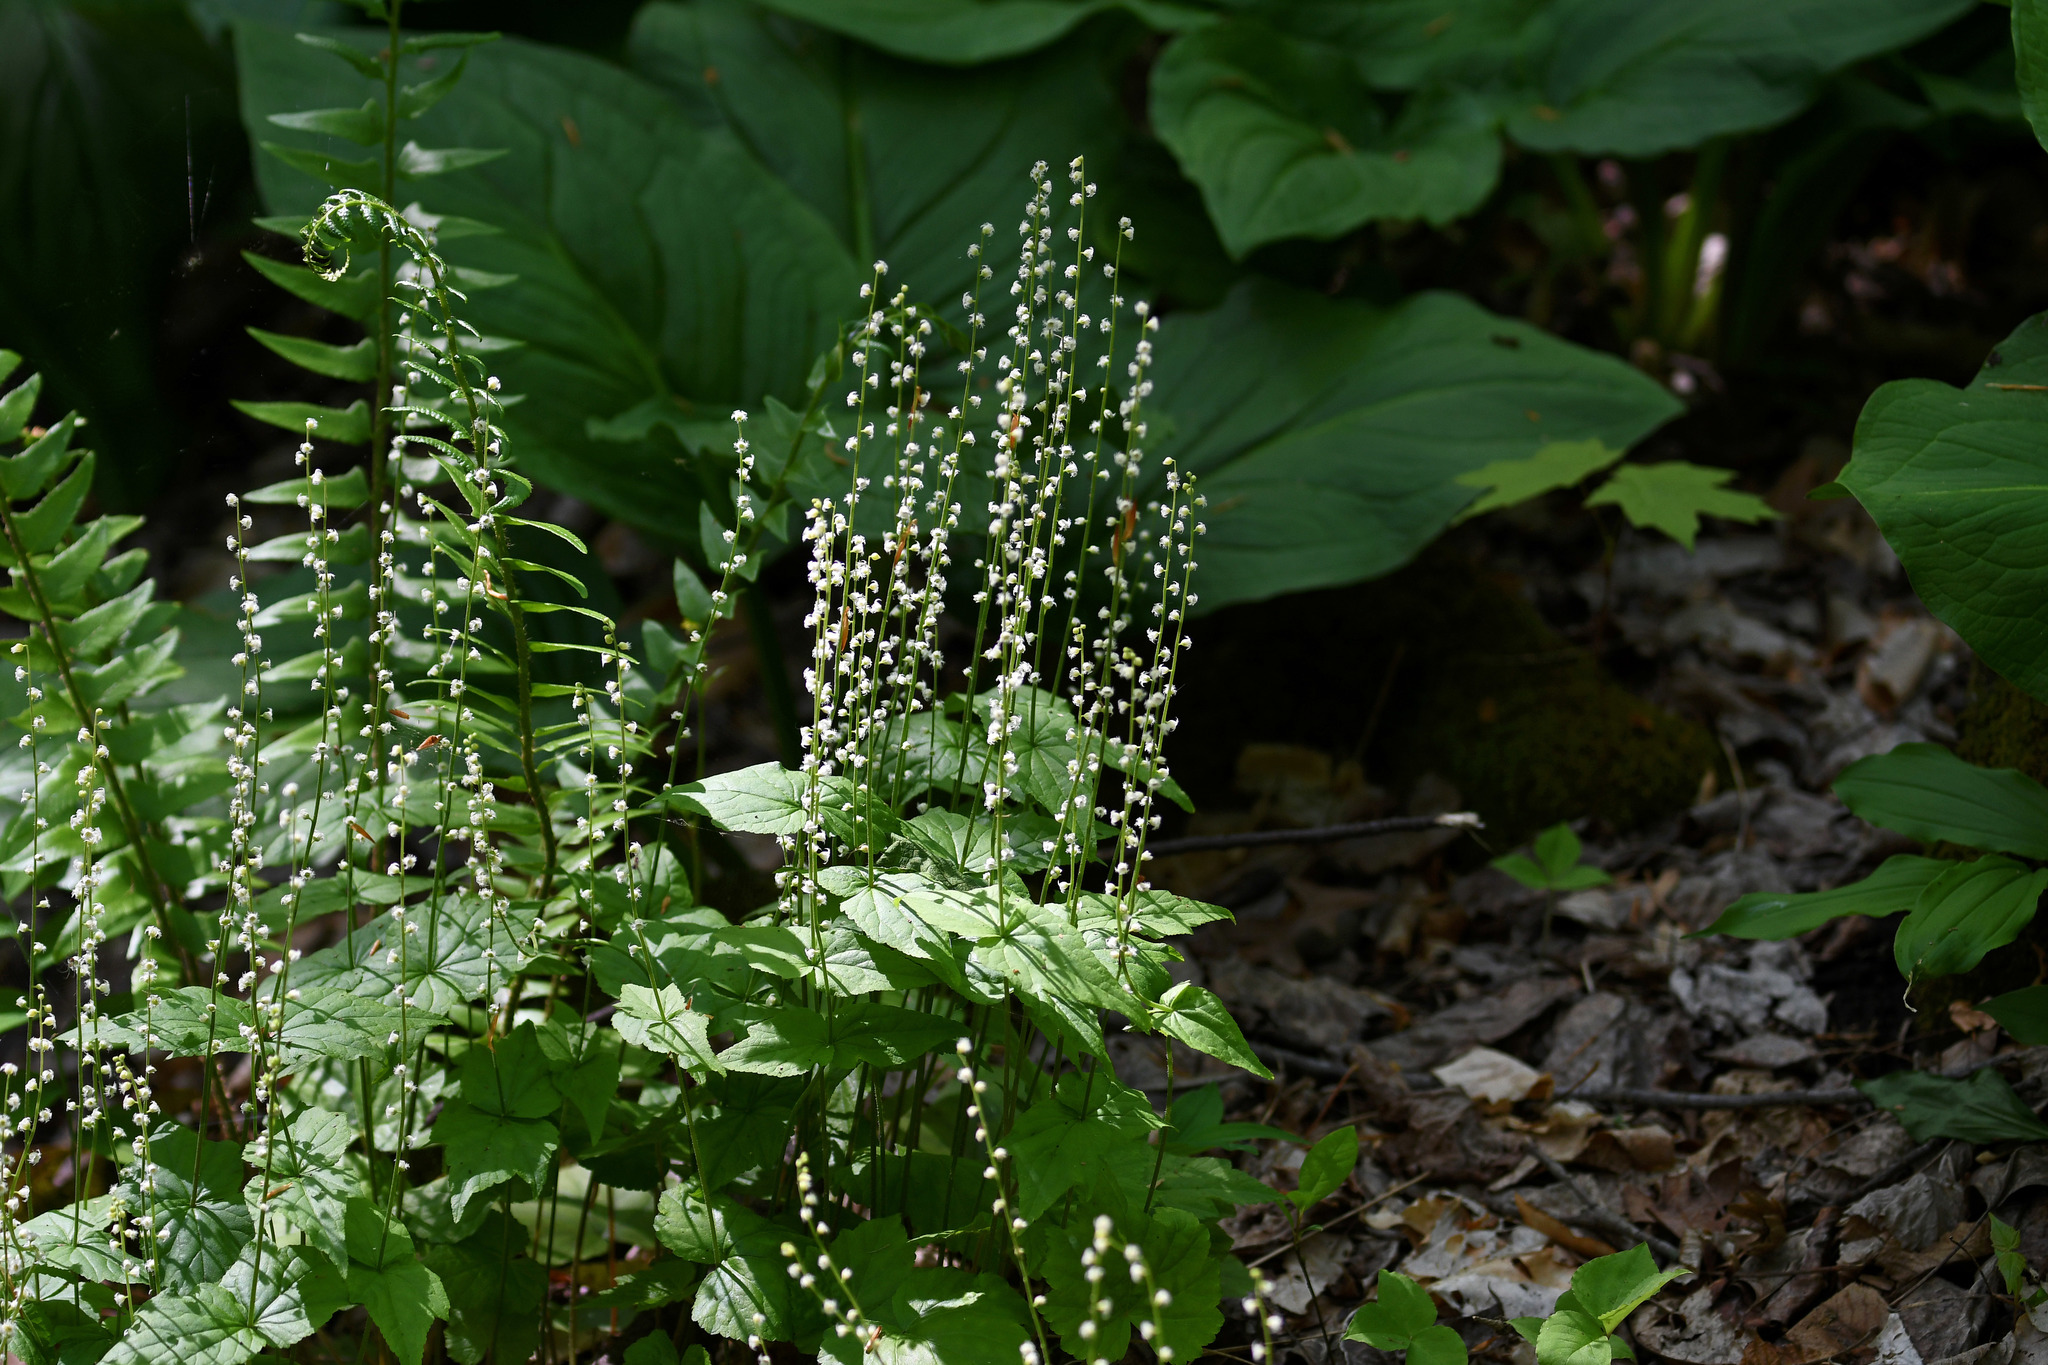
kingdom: Plantae
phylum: Tracheophyta
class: Magnoliopsida
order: Saxifragales
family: Saxifragaceae
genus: Mitella
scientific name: Mitella diphylla
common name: Coolwort
